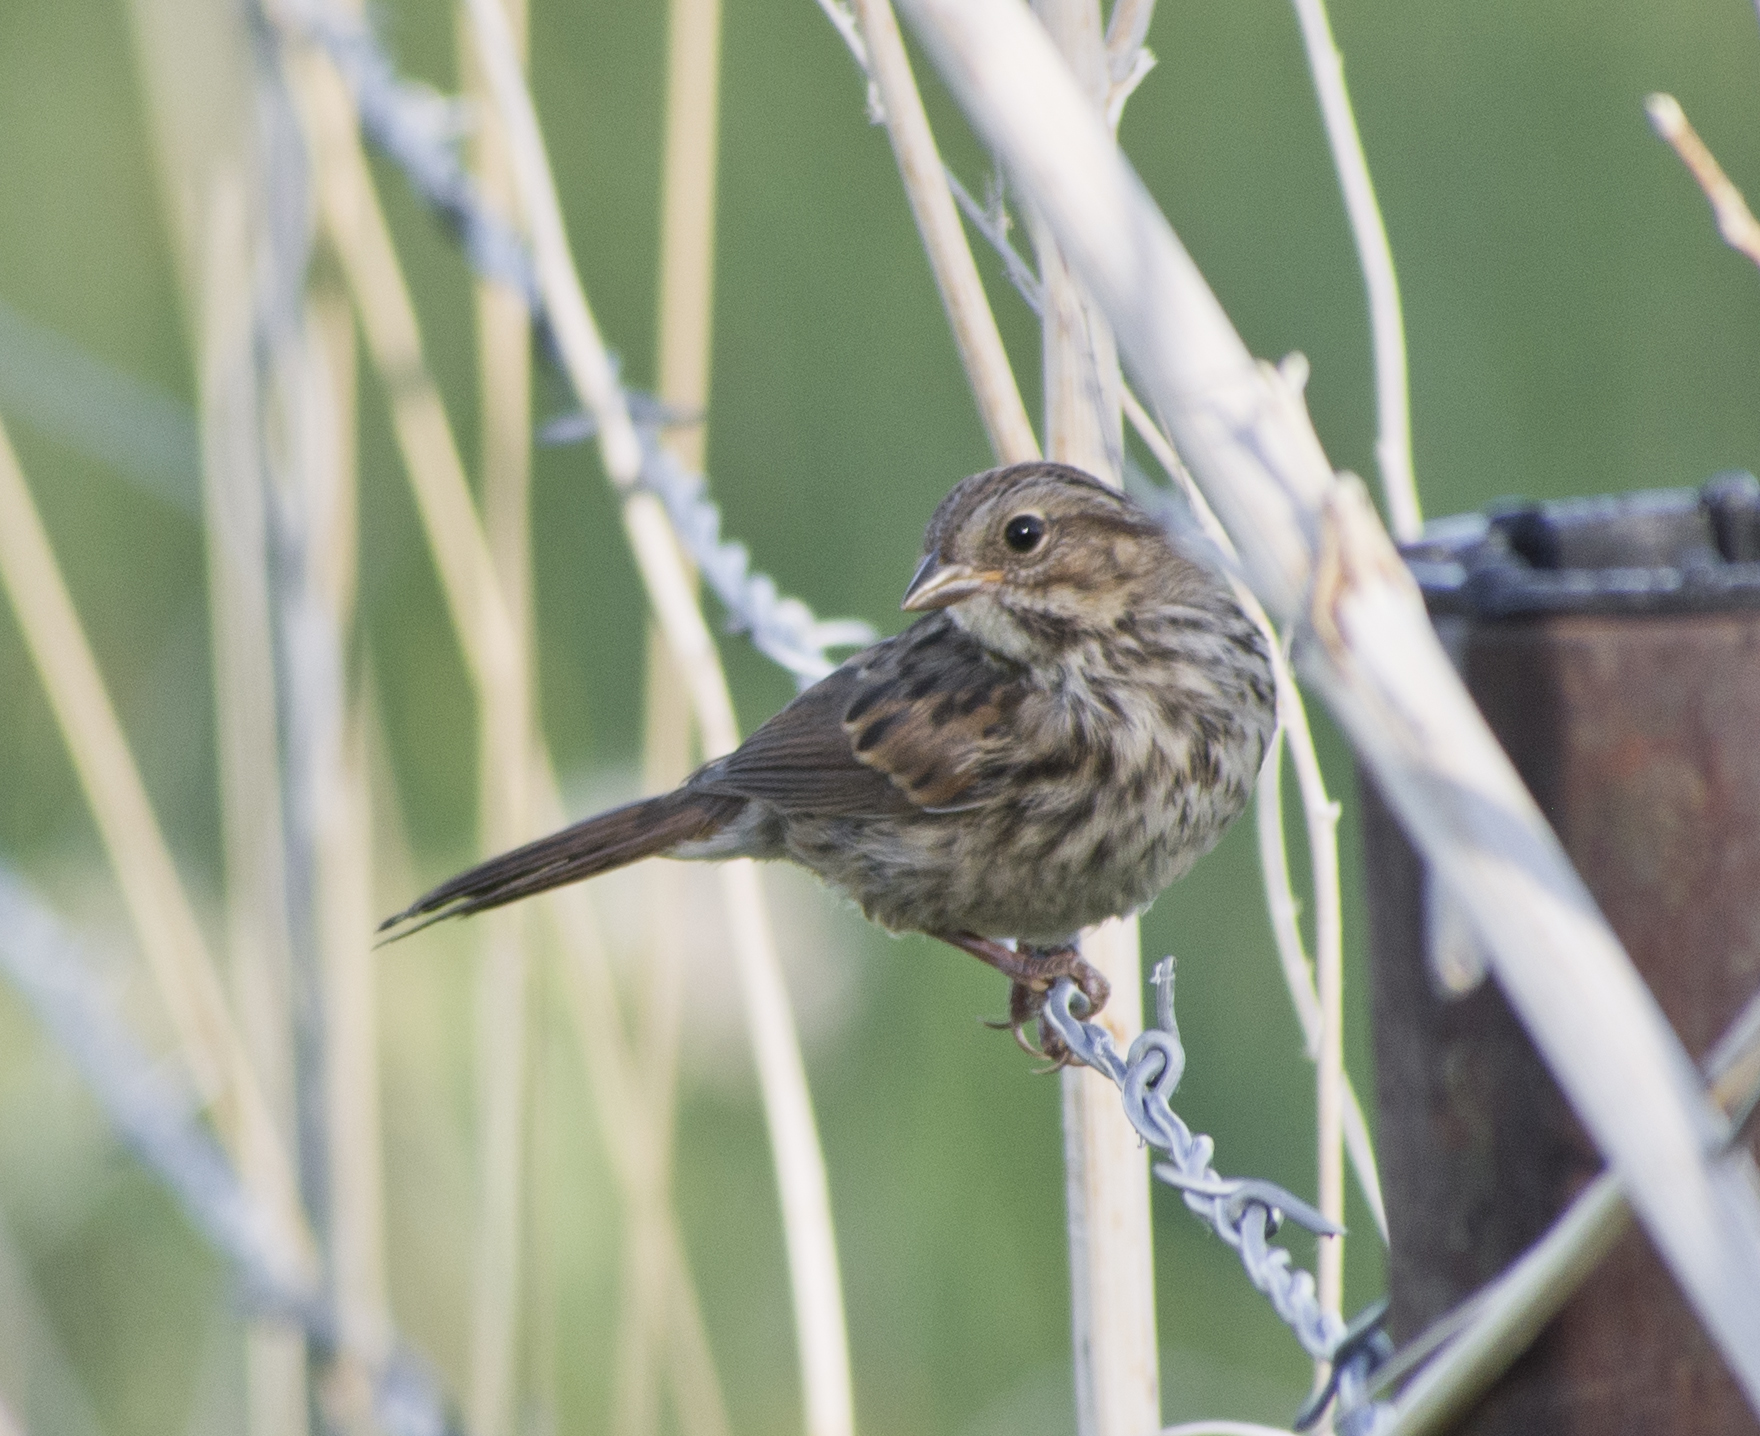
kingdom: Animalia
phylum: Chordata
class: Aves
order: Passeriformes
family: Passerellidae
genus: Melospiza
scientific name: Melospiza melodia
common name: Song sparrow
